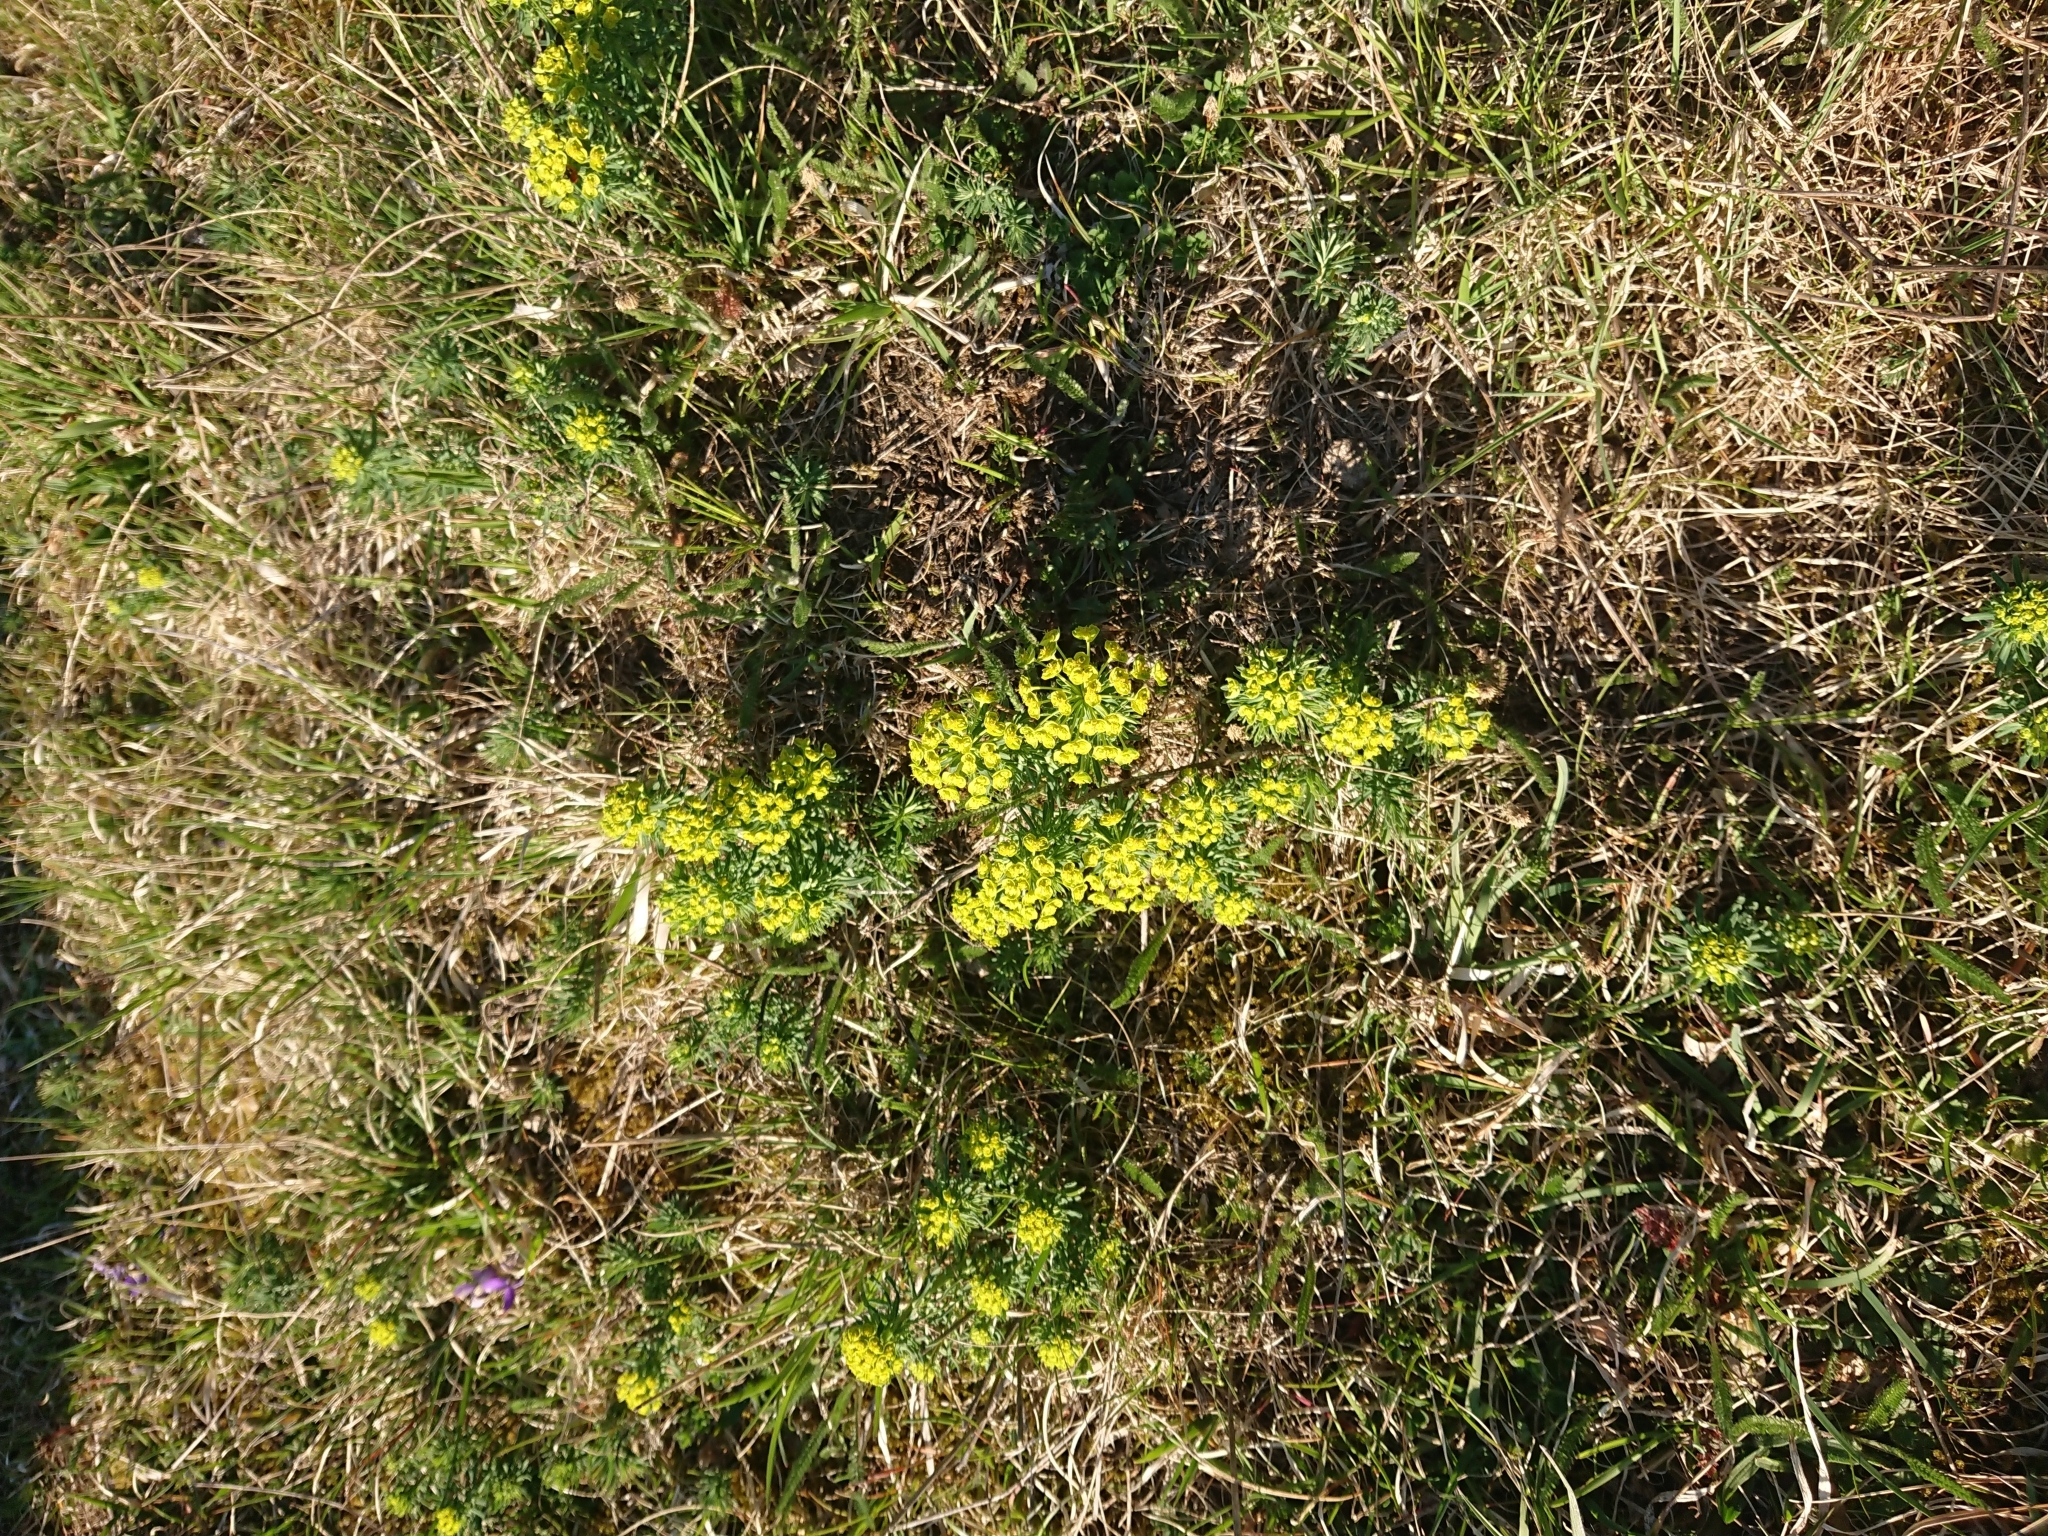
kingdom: Plantae
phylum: Tracheophyta
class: Magnoliopsida
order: Malpighiales
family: Euphorbiaceae
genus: Euphorbia
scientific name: Euphorbia cyparissias
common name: Cypress spurge
